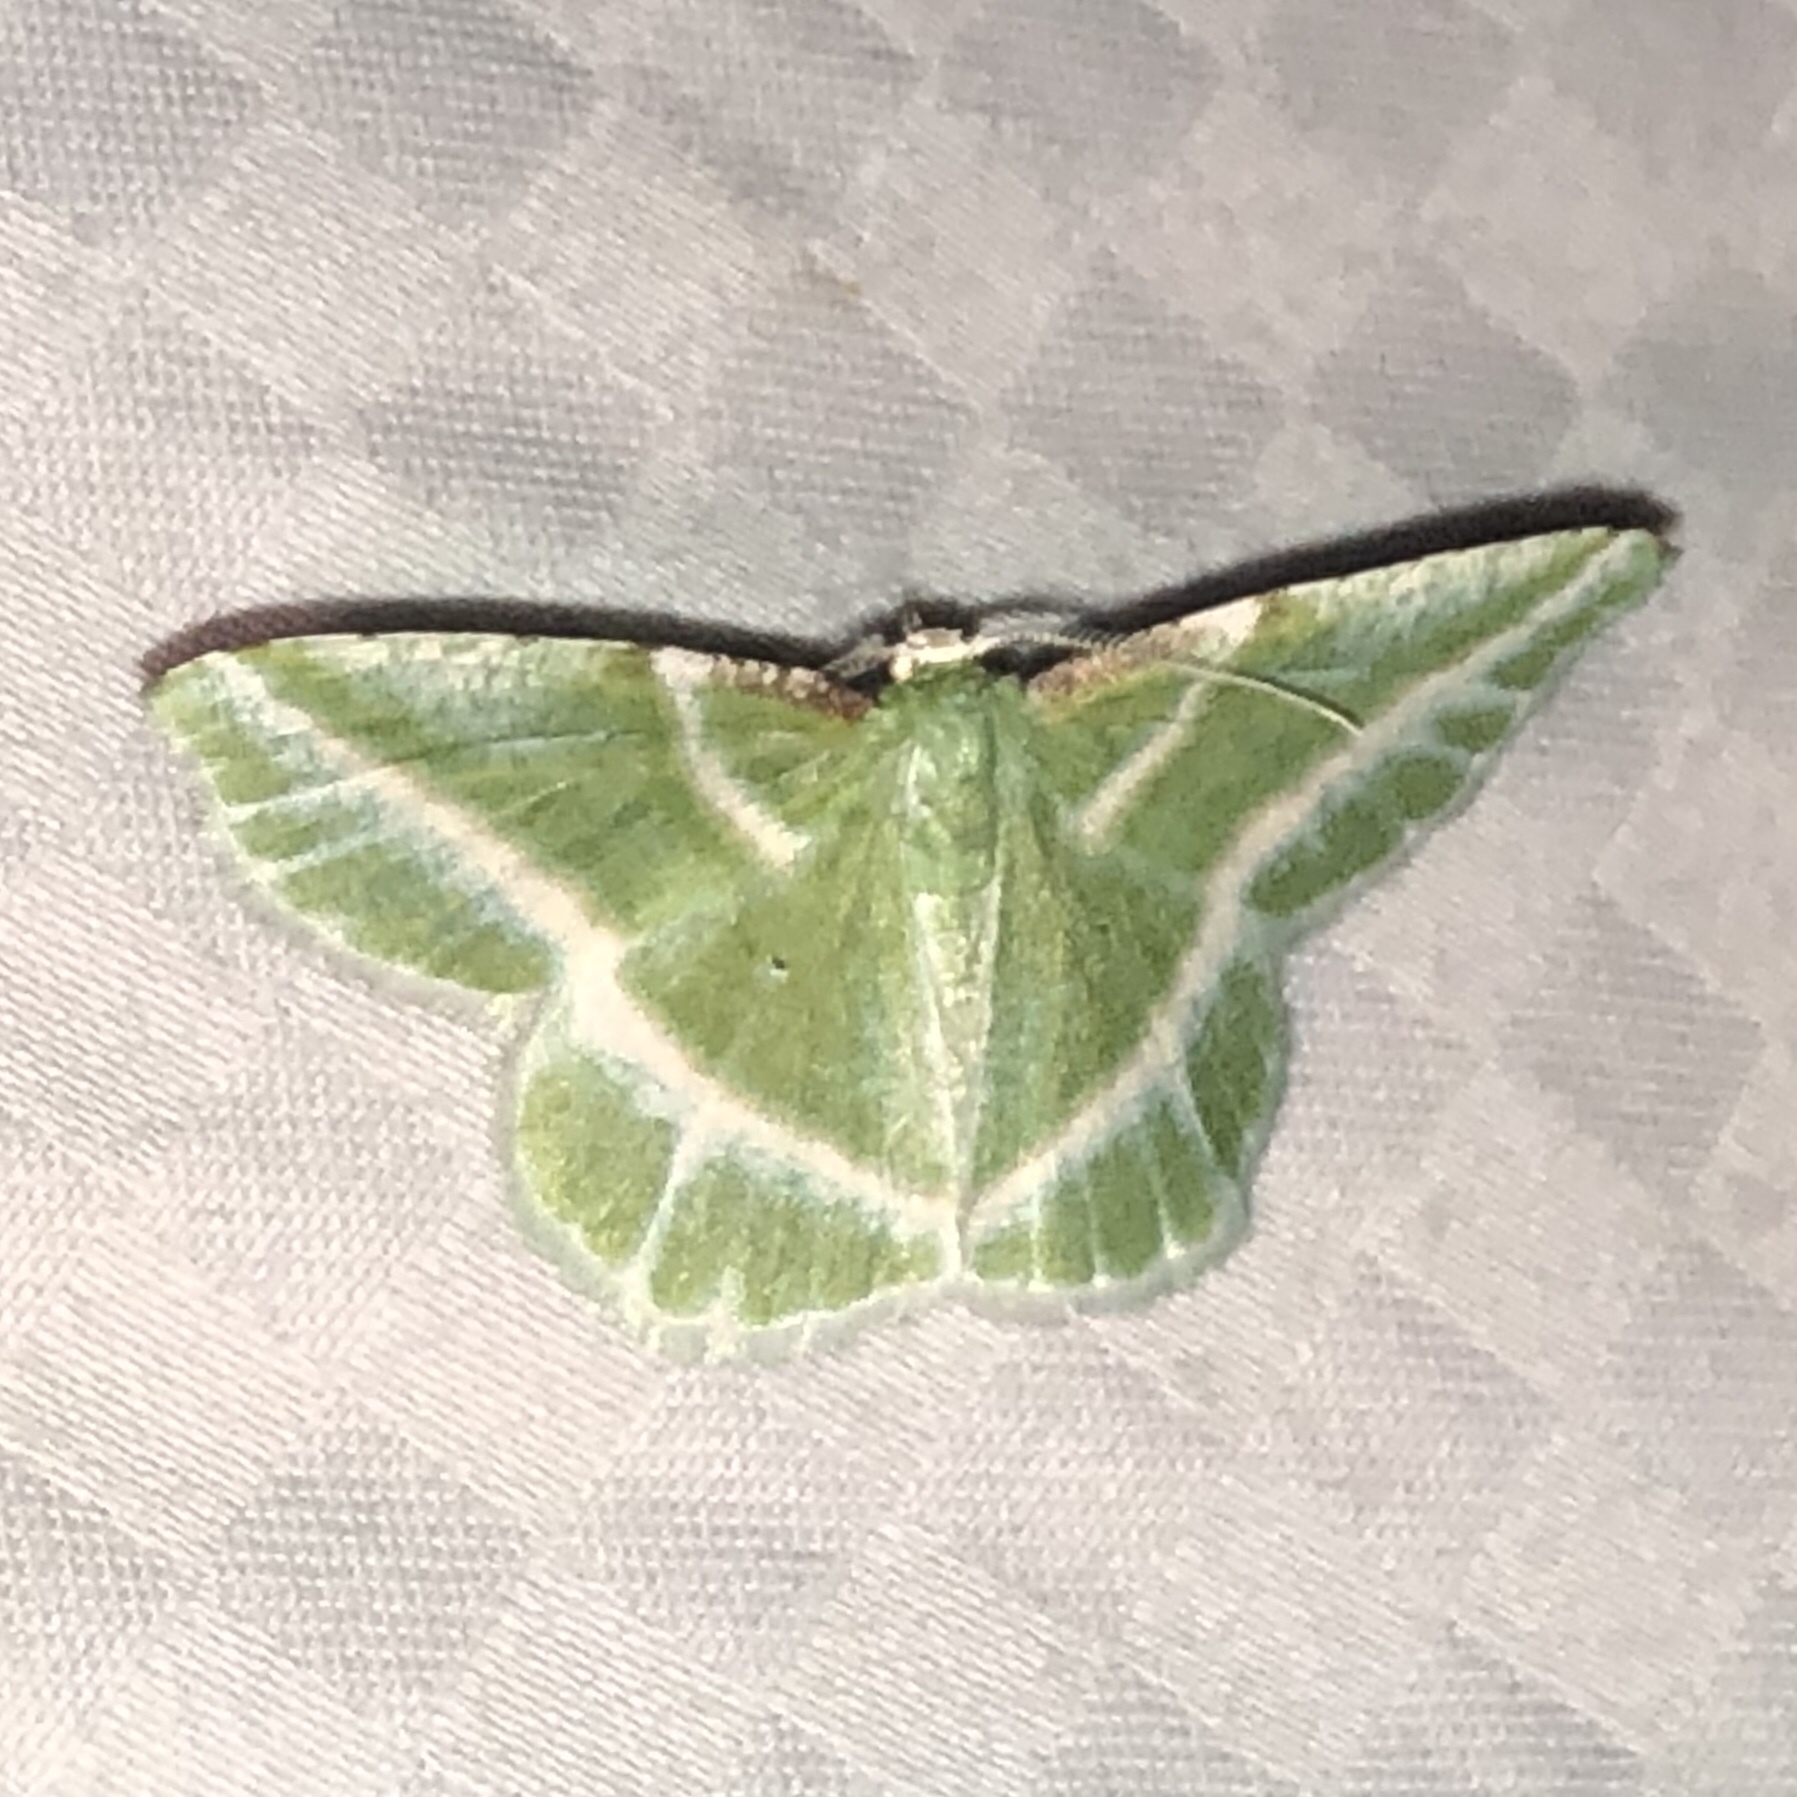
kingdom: Animalia
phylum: Arthropoda
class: Insecta
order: Lepidoptera
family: Geometridae
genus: Dichorda
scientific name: Dichorda iridaria
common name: Showy emerald
